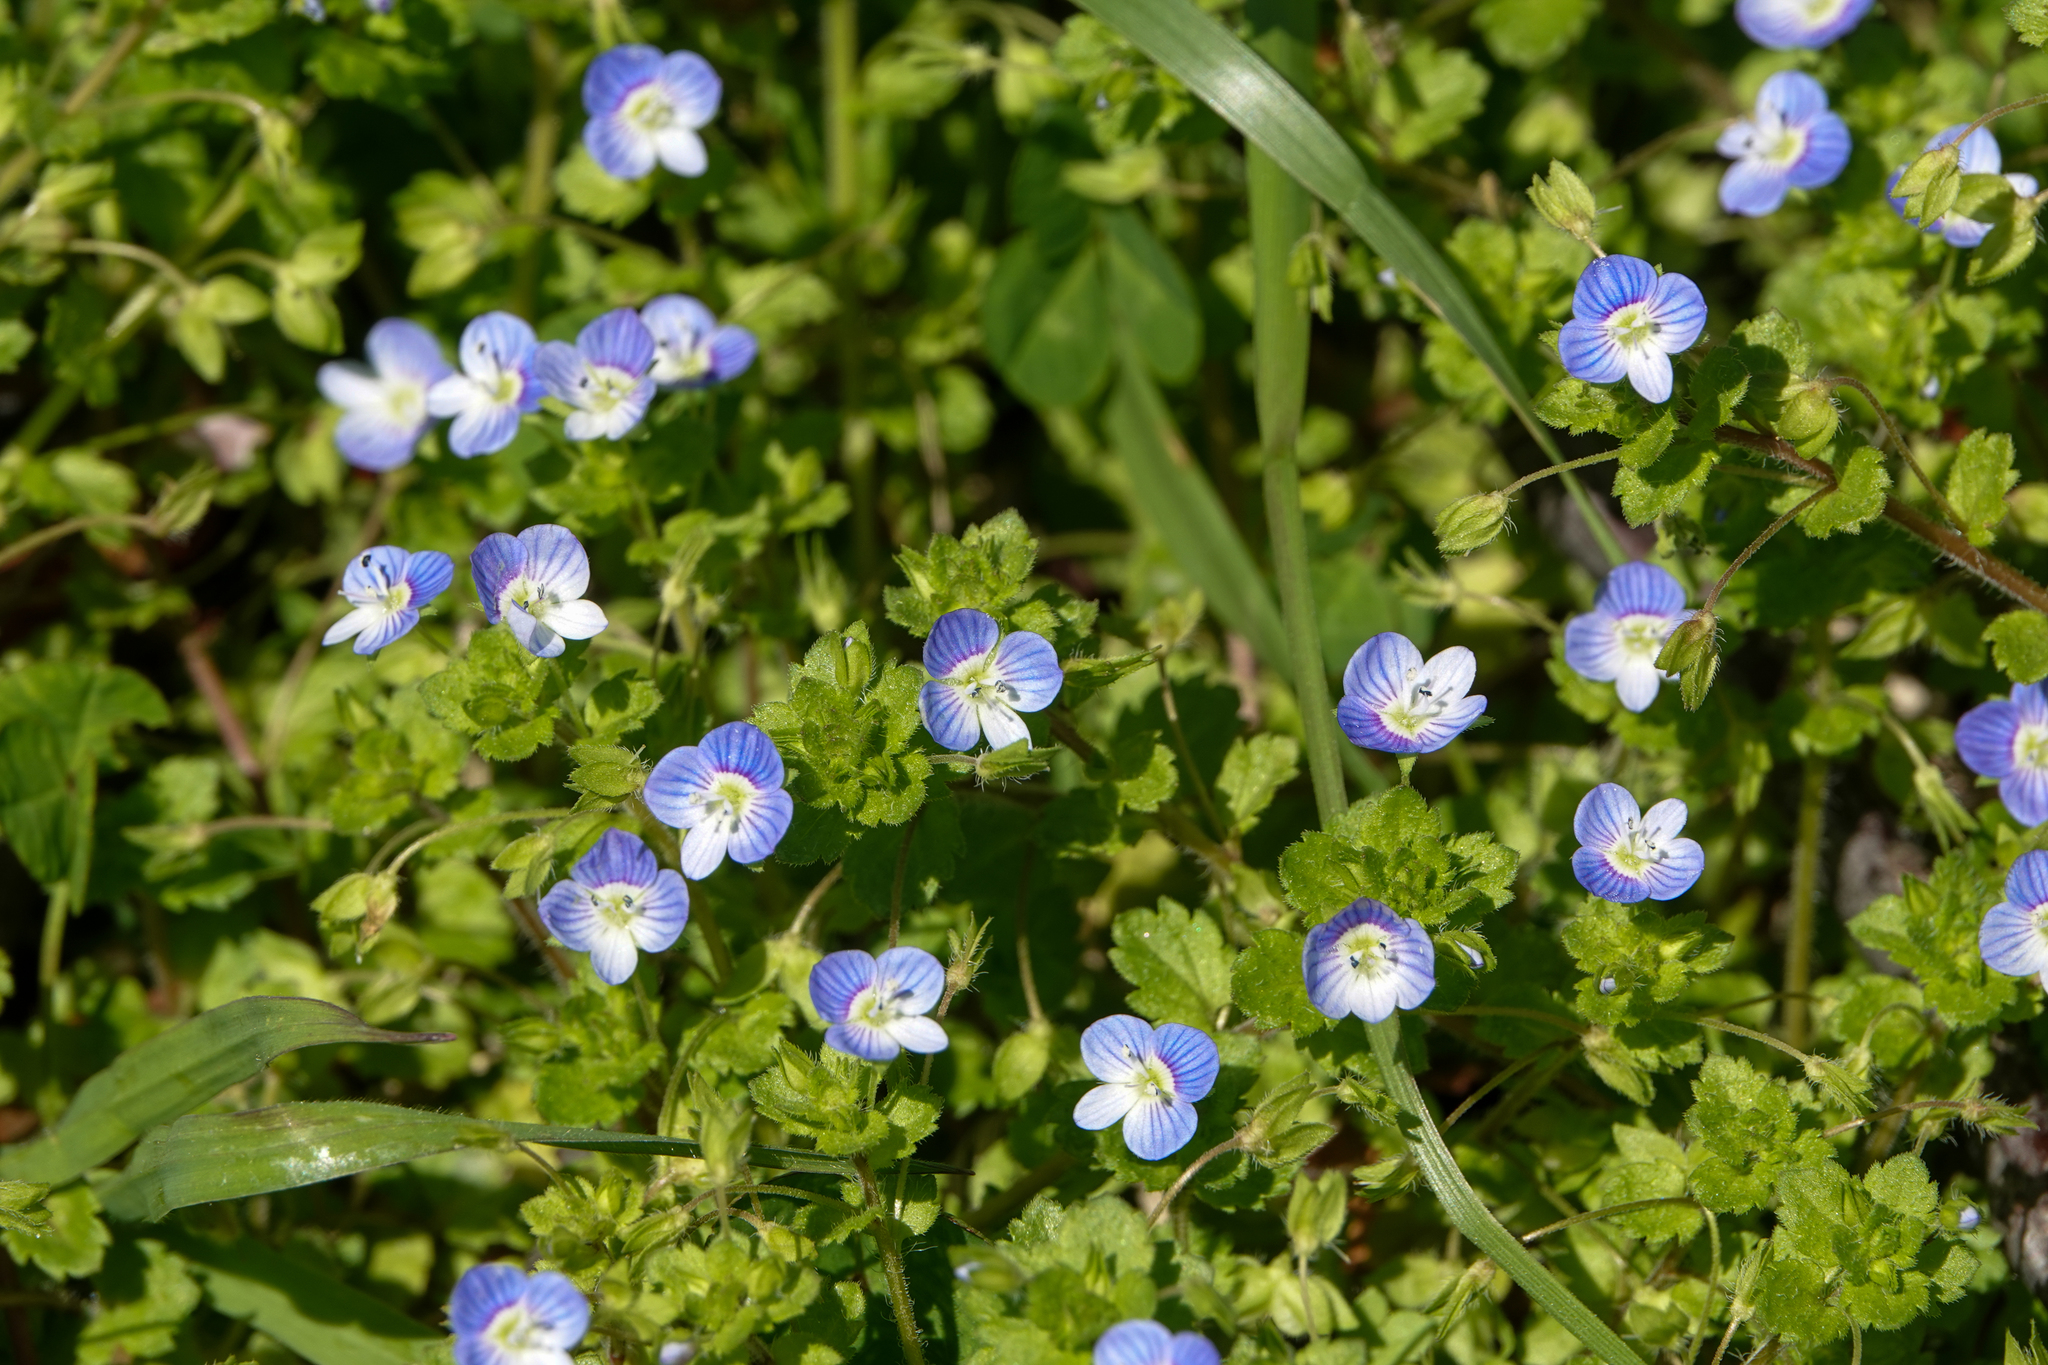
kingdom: Plantae
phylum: Tracheophyta
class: Magnoliopsida
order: Lamiales
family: Plantaginaceae
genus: Veronica
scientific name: Veronica persica
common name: Common field-speedwell
